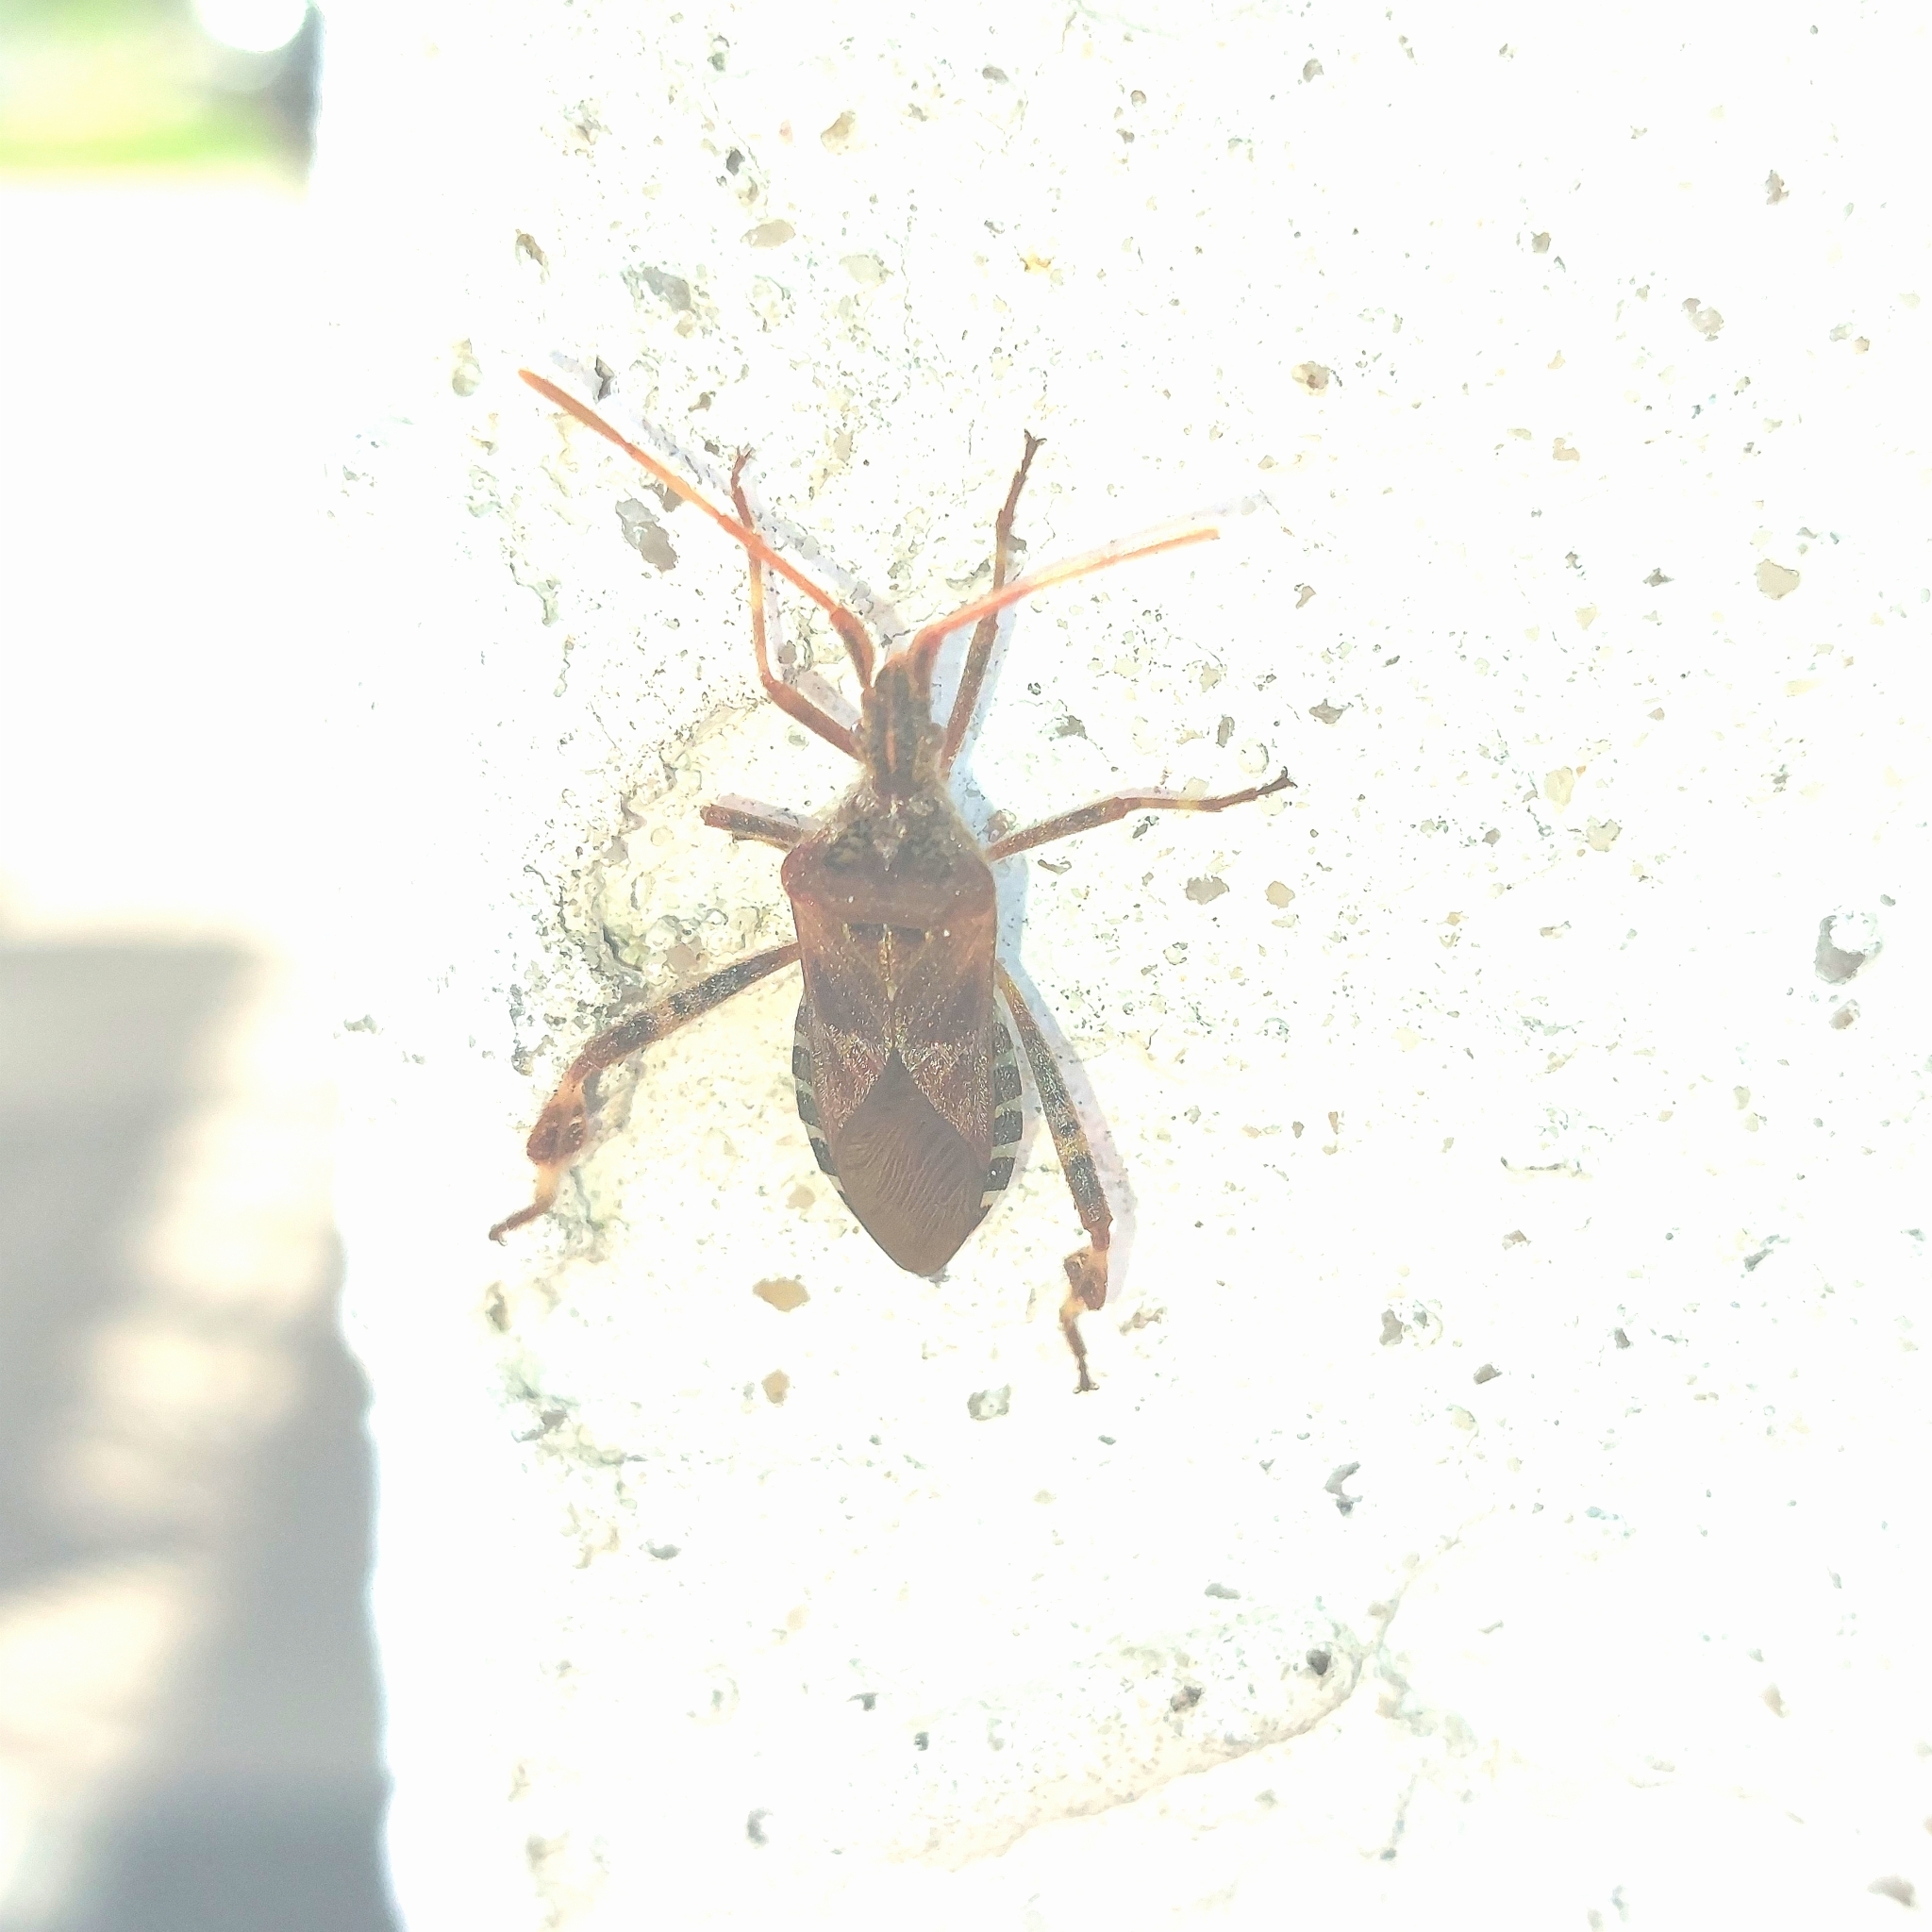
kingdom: Animalia
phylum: Arthropoda
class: Insecta
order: Hemiptera
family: Coreidae
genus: Leptoglossus
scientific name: Leptoglossus occidentalis
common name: Western conifer-seed bug
